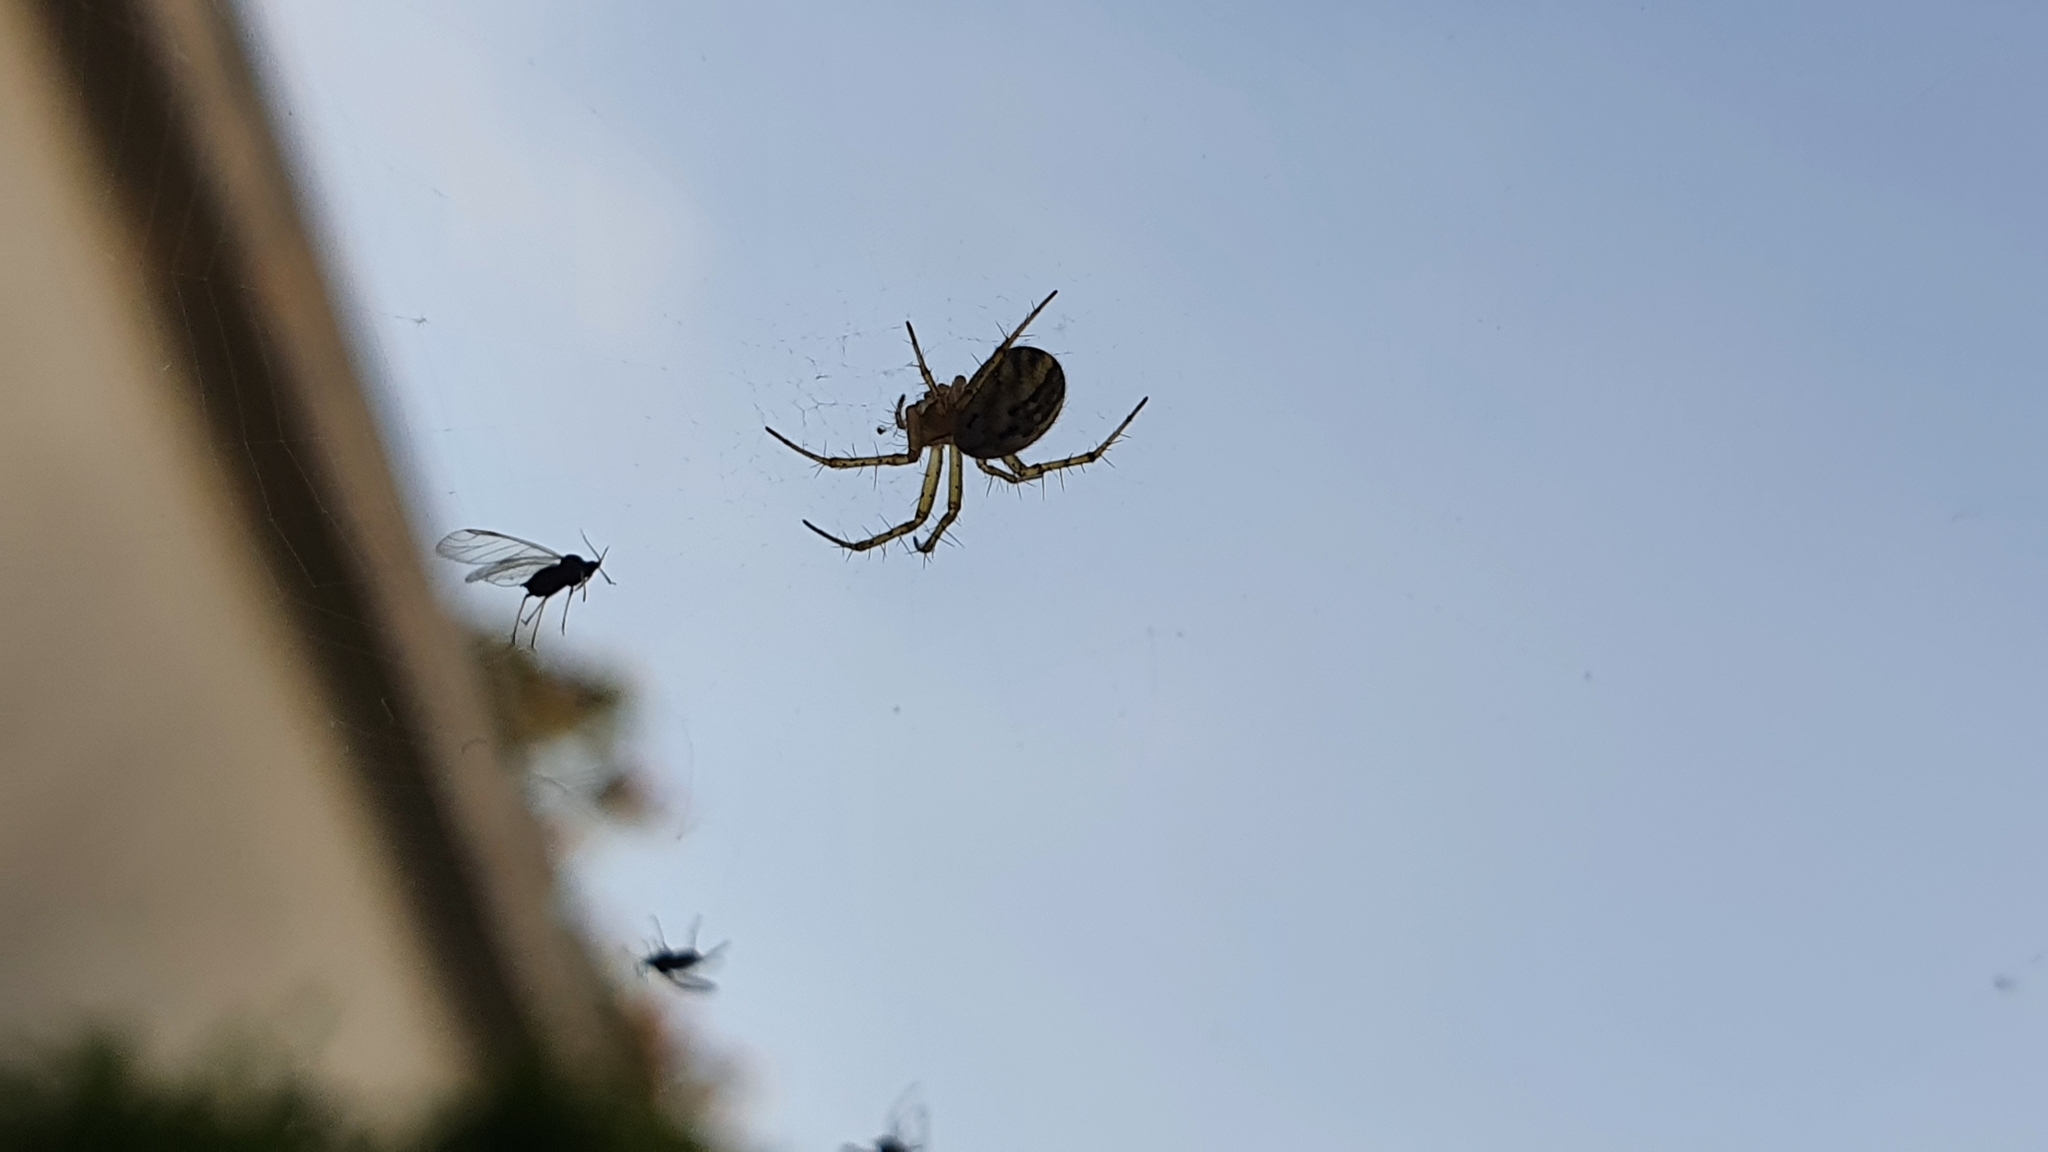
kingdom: Animalia
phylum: Arthropoda
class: Arachnida
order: Araneae
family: Araneidae
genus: Mangora
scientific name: Mangora acalypha
